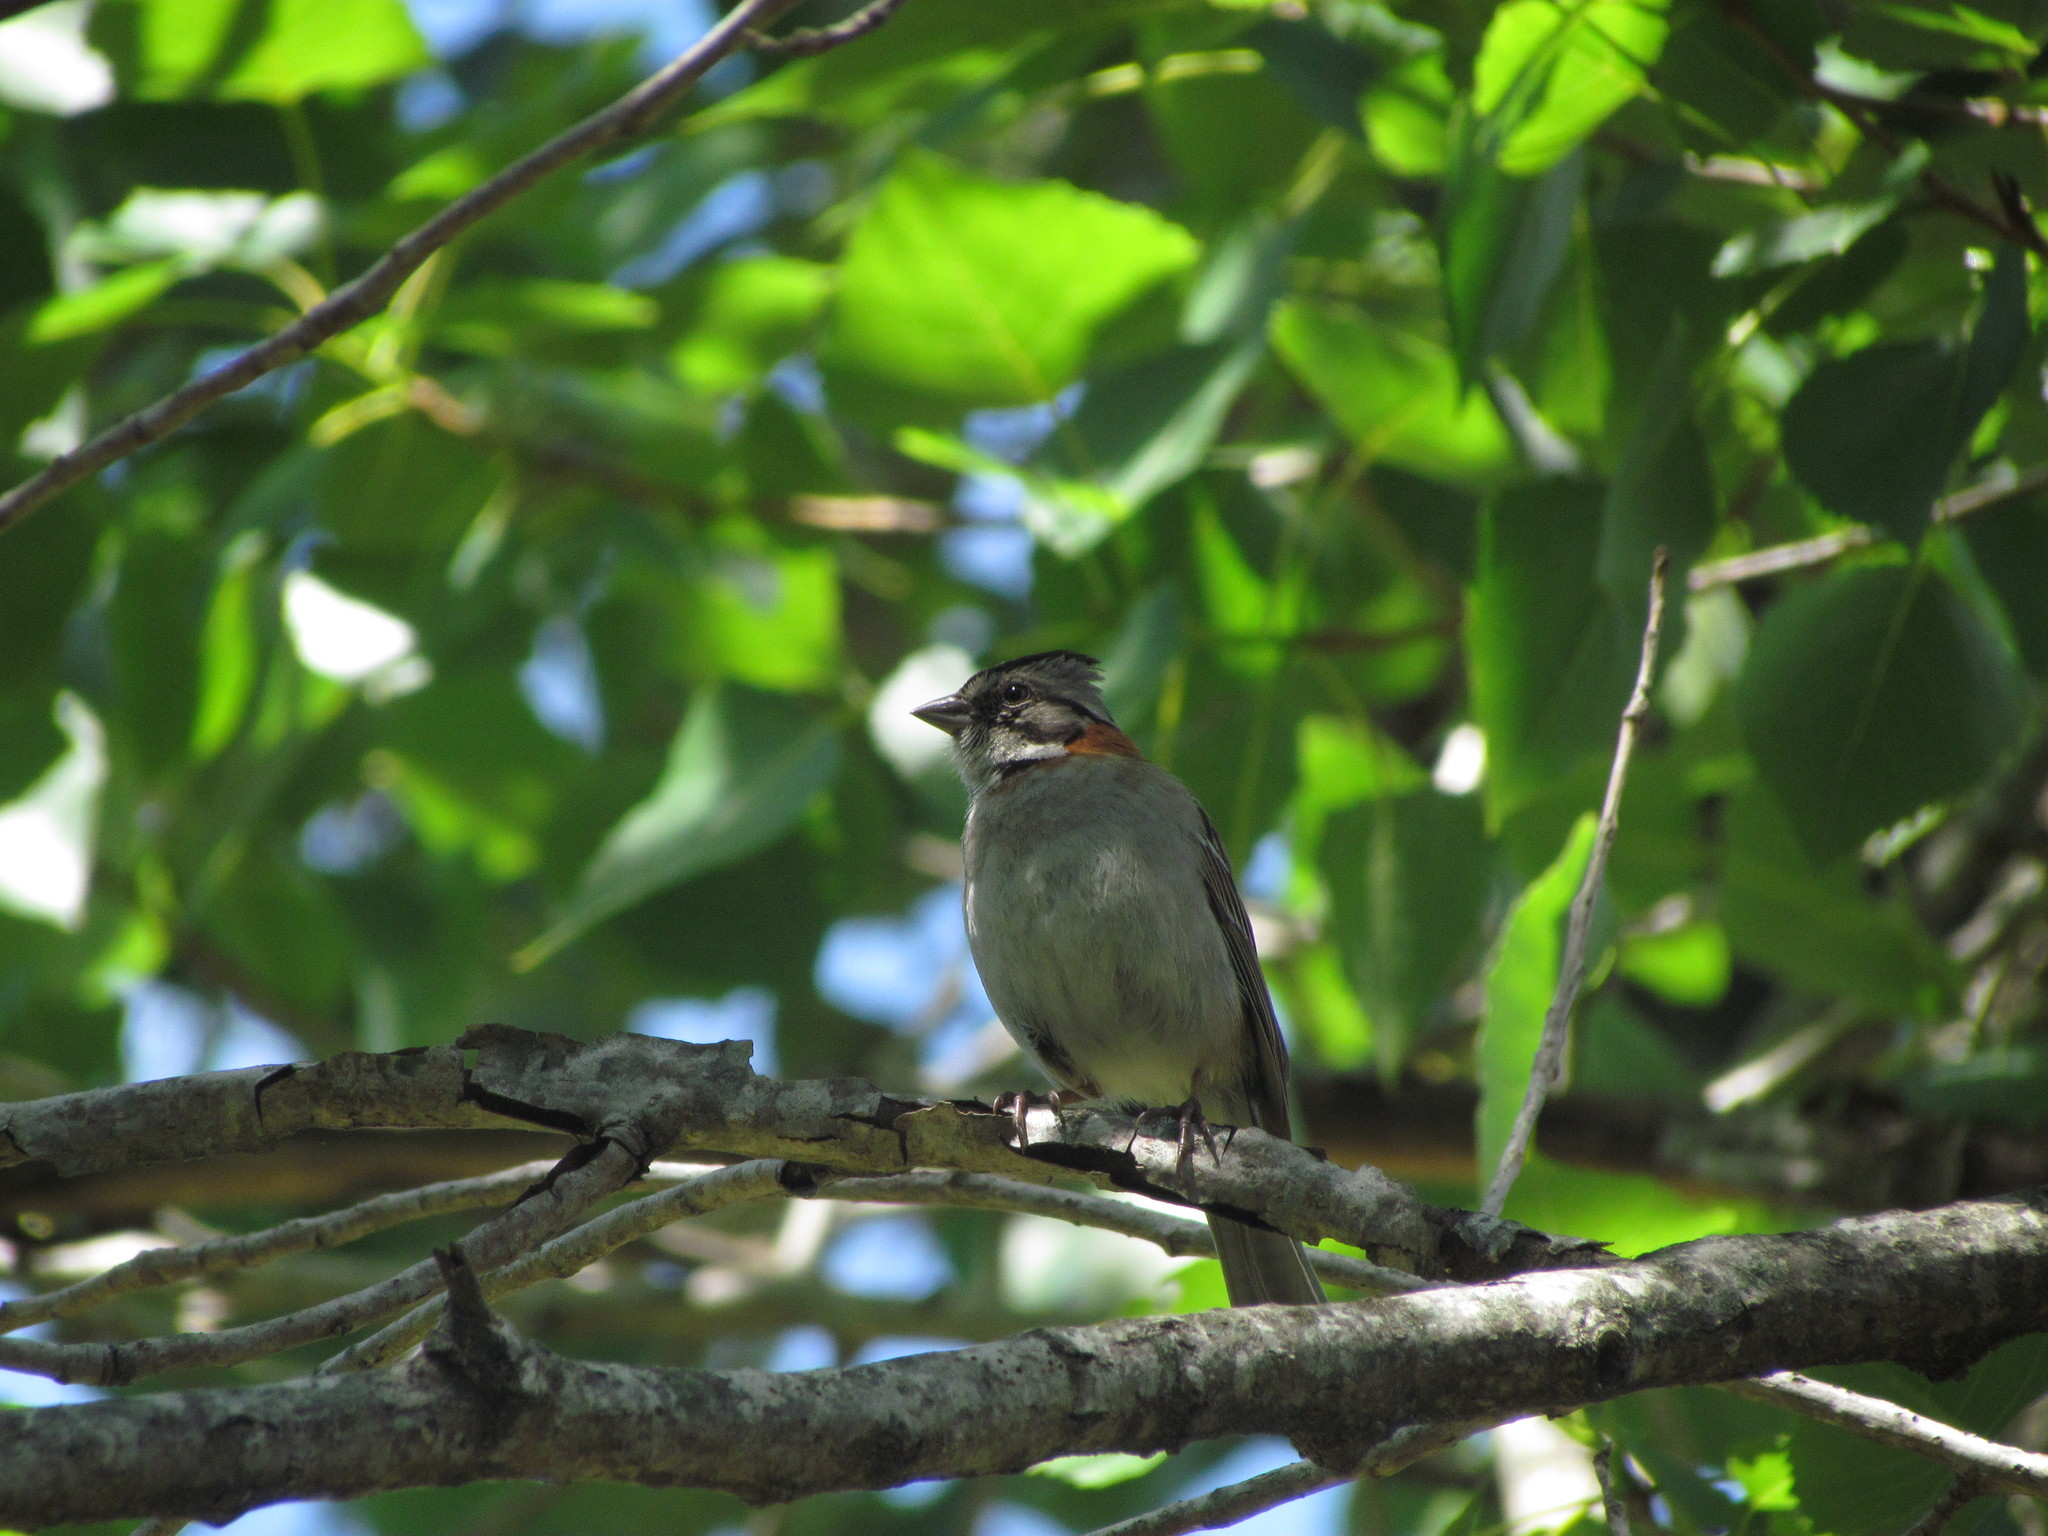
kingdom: Animalia
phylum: Chordata
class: Aves
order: Passeriformes
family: Passerellidae
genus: Zonotrichia
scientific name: Zonotrichia capensis
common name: Rufous-collared sparrow
